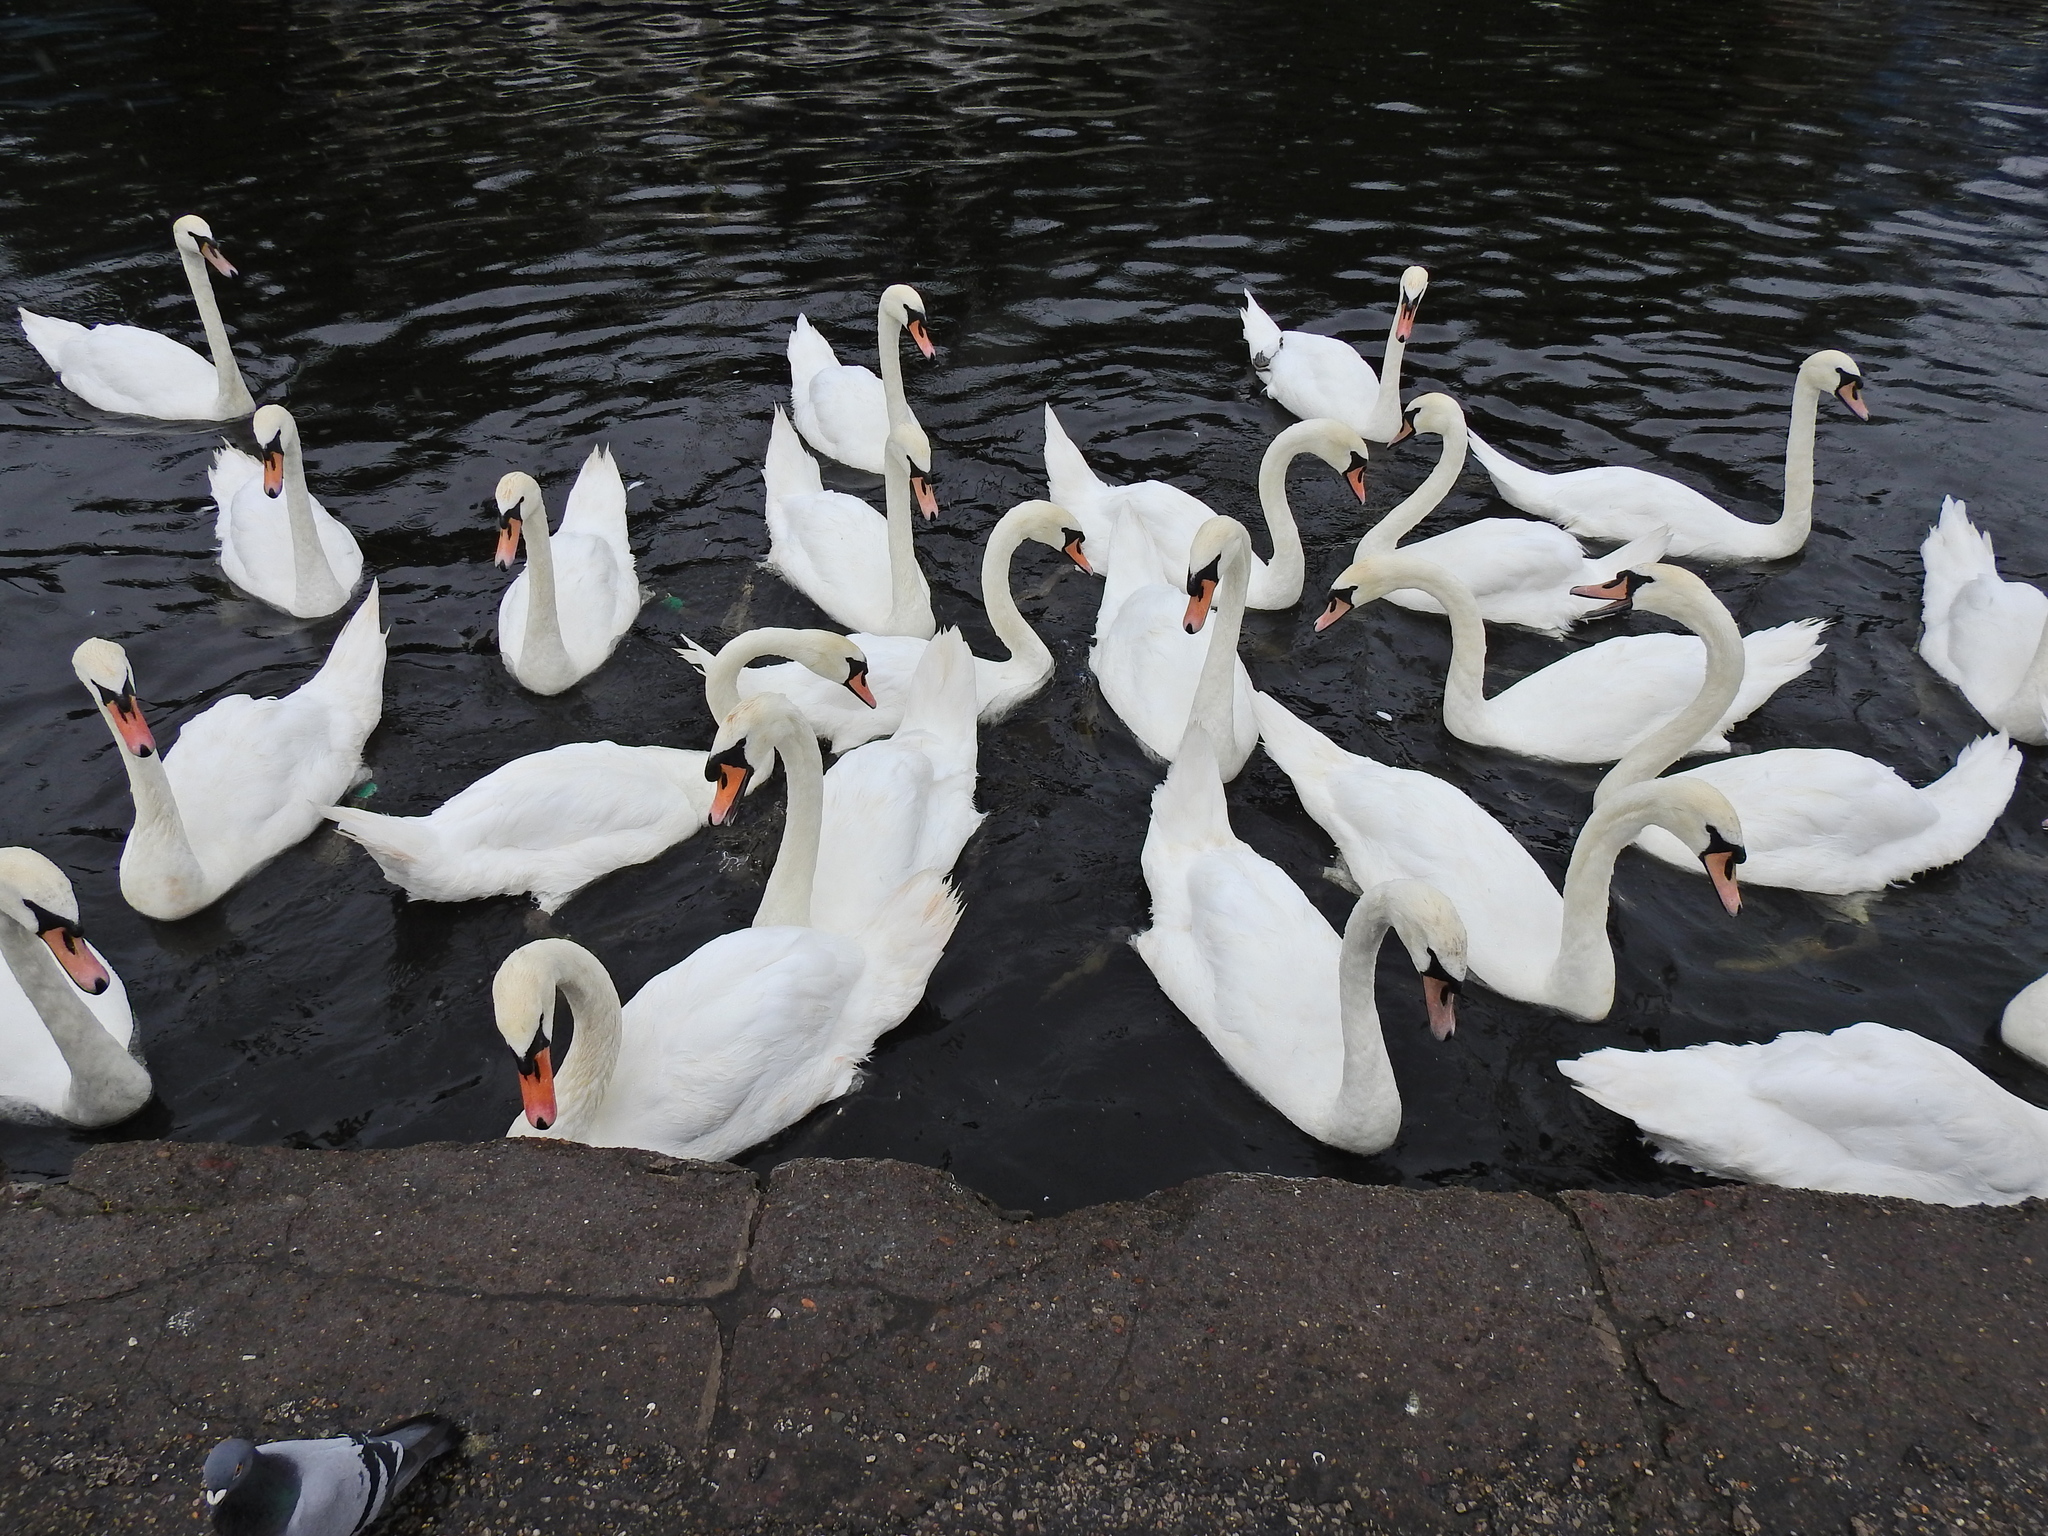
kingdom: Animalia
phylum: Chordata
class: Aves
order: Anseriformes
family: Anatidae
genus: Cygnus
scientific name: Cygnus olor
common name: Mute swan
